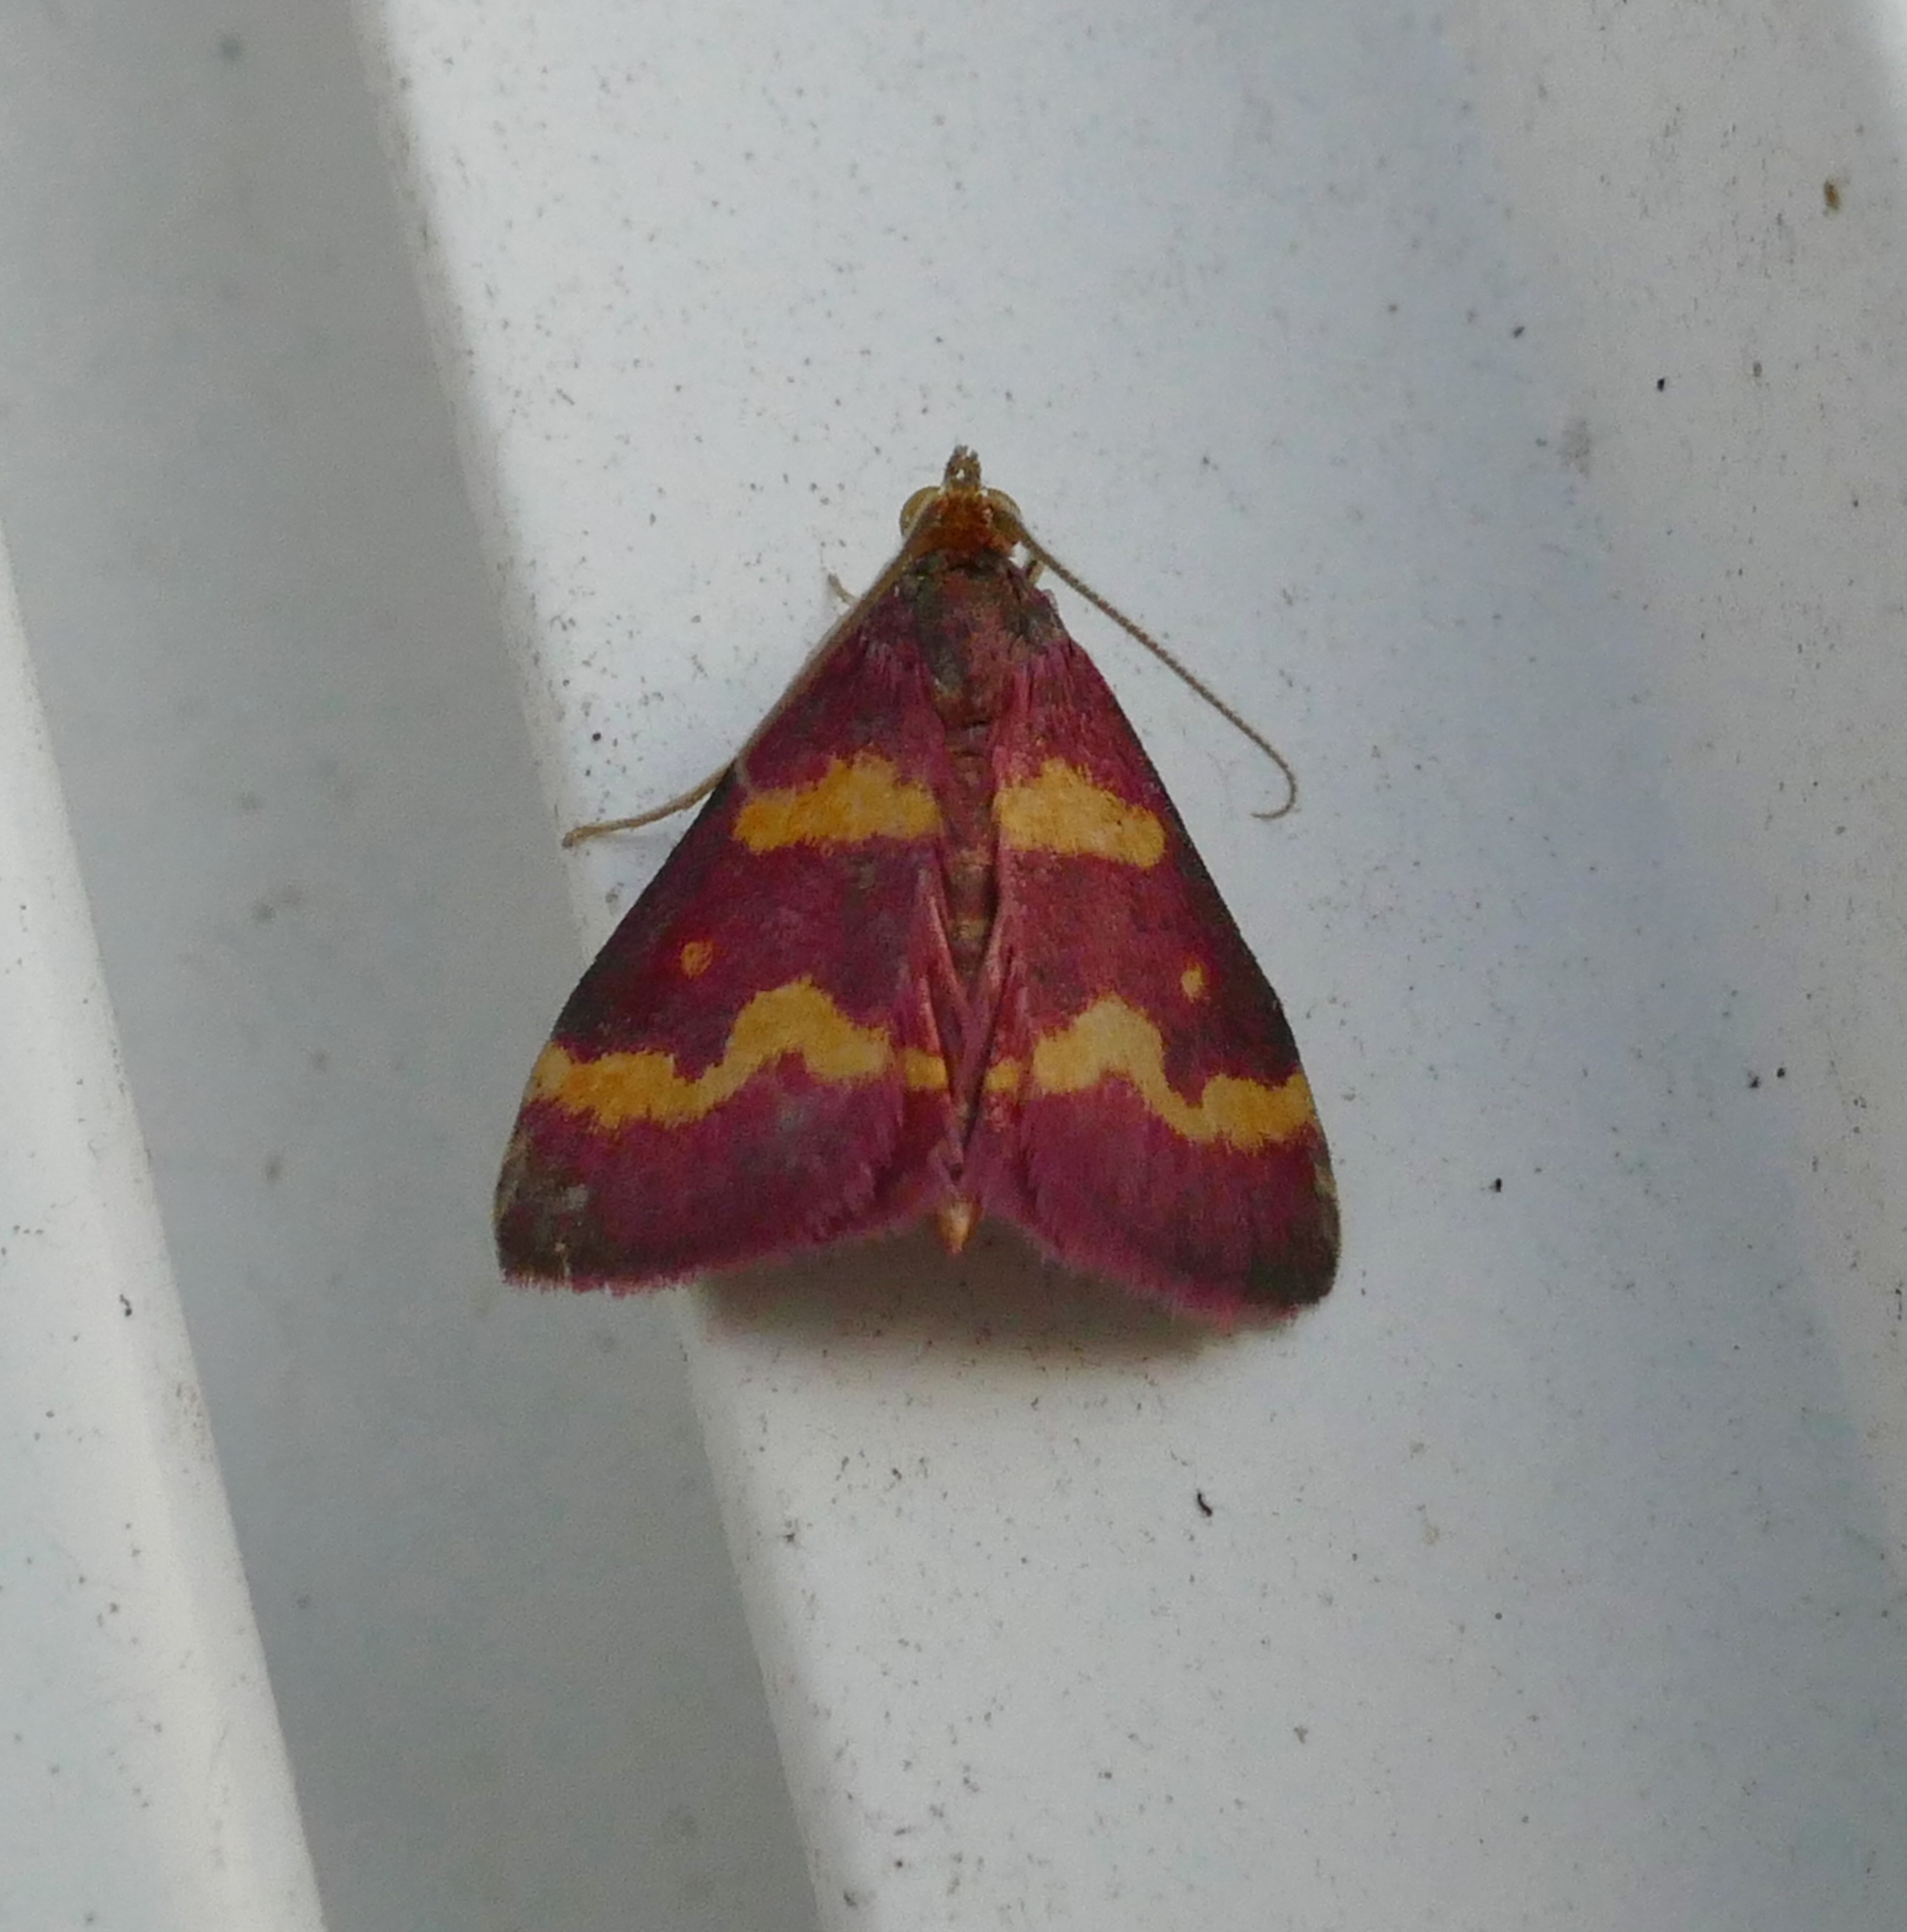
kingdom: Animalia
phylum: Arthropoda
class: Insecta
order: Lepidoptera
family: Crambidae
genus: Pyrausta
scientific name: Pyrausta tyralis
